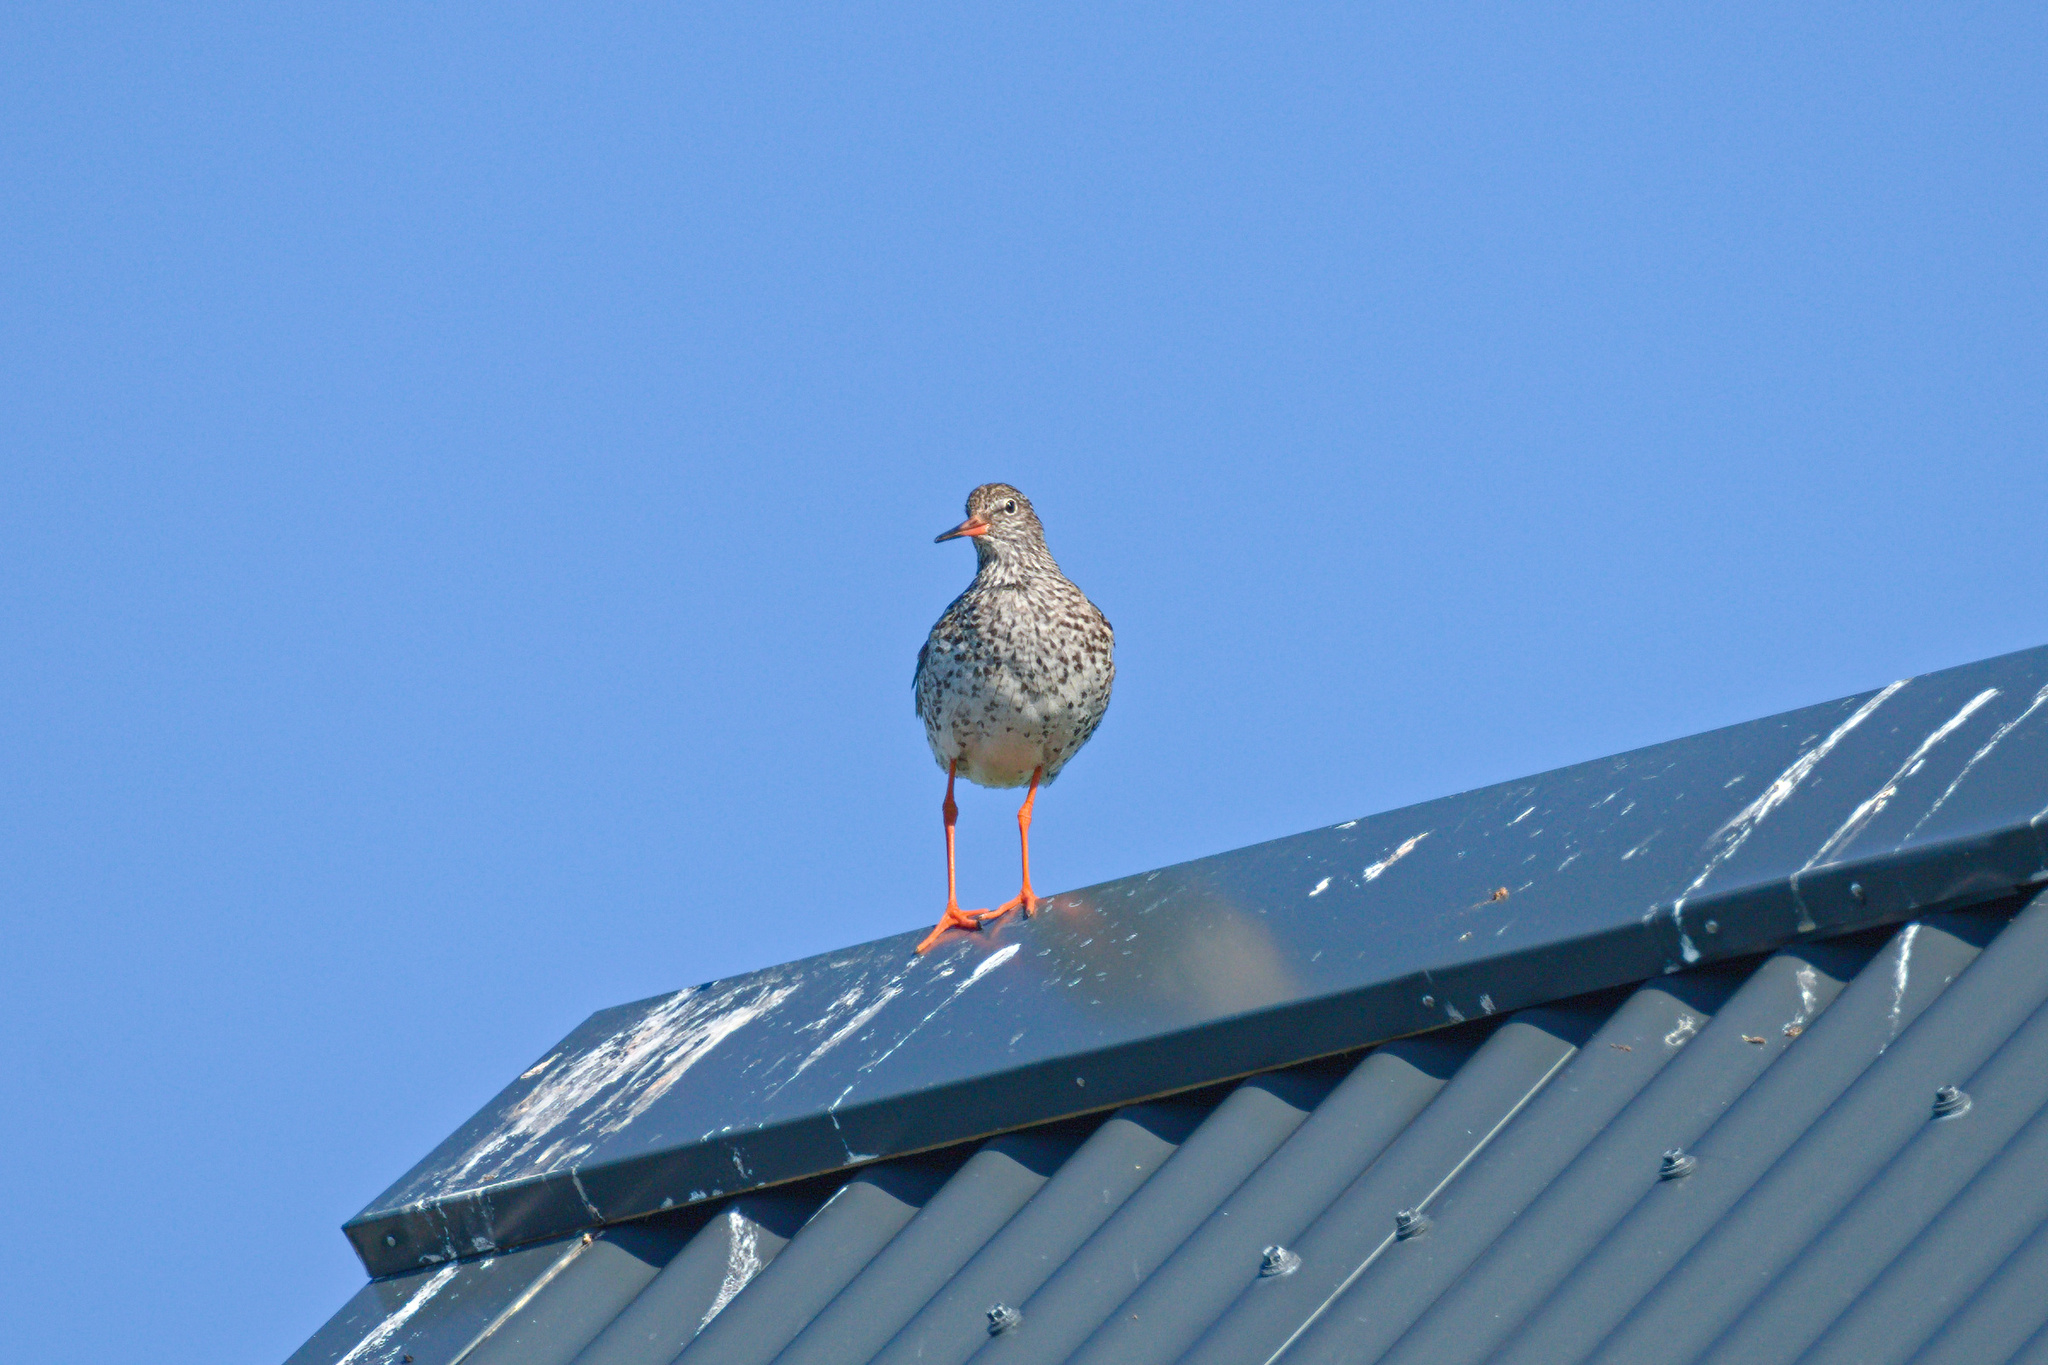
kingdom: Animalia
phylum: Chordata
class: Aves
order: Charadriiformes
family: Scolopacidae
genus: Tringa
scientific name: Tringa totanus
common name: Common redshank
